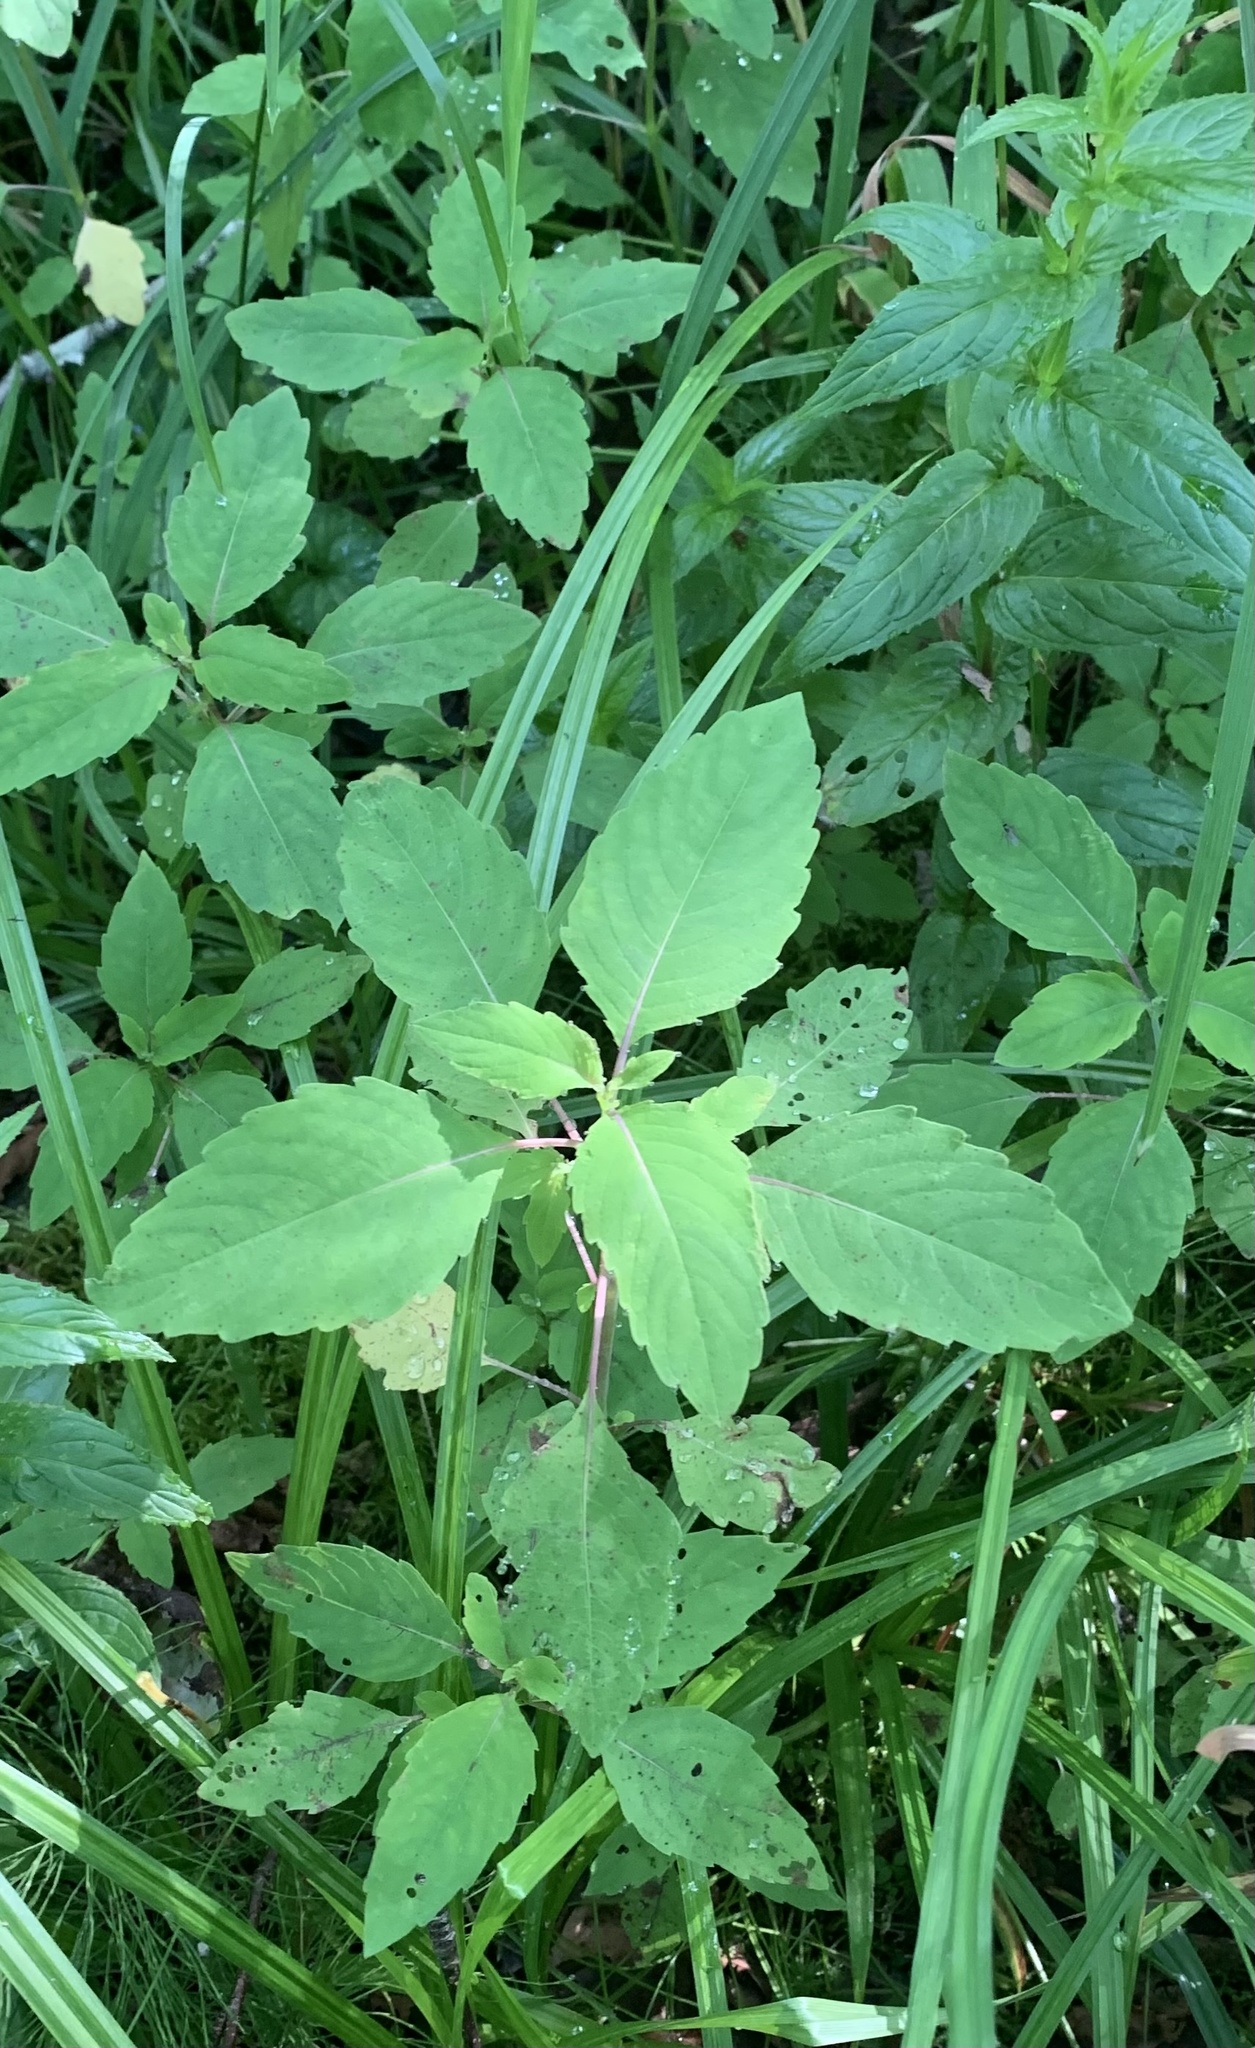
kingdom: Plantae
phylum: Tracheophyta
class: Magnoliopsida
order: Ericales
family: Balsaminaceae
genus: Impatiens
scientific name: Impatiens capensis
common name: Orange balsam
